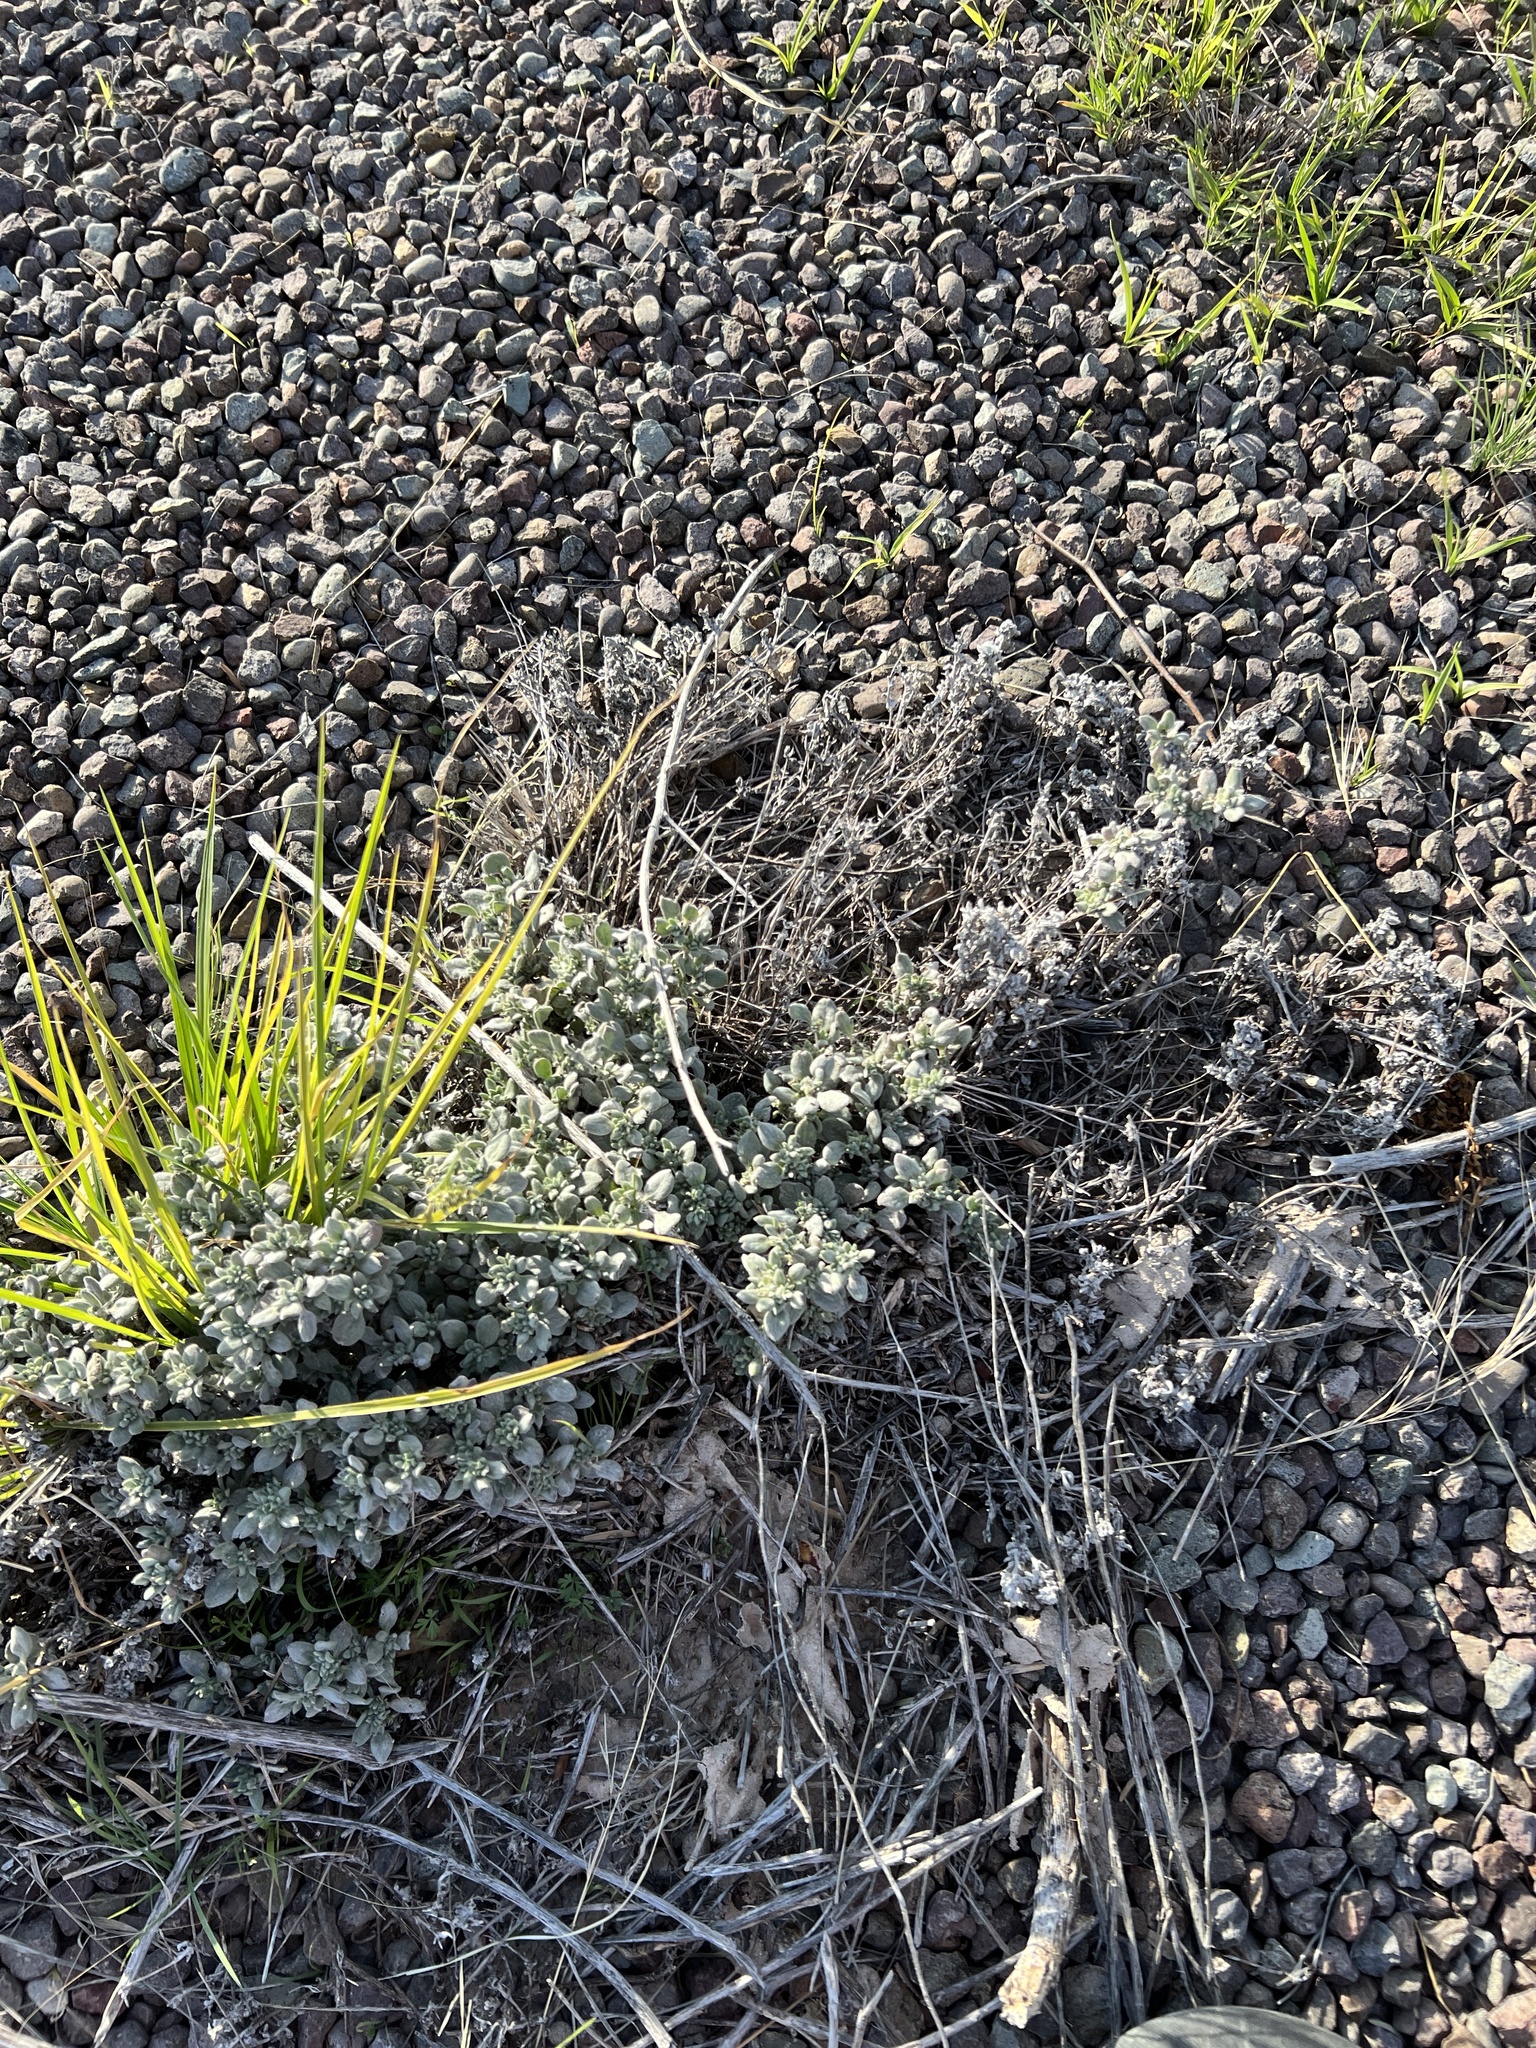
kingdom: Plantae
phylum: Tracheophyta
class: Magnoliopsida
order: Boraginales
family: Ehretiaceae
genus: Tiquilia
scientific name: Tiquilia canescens
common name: Hairy tiquilia
